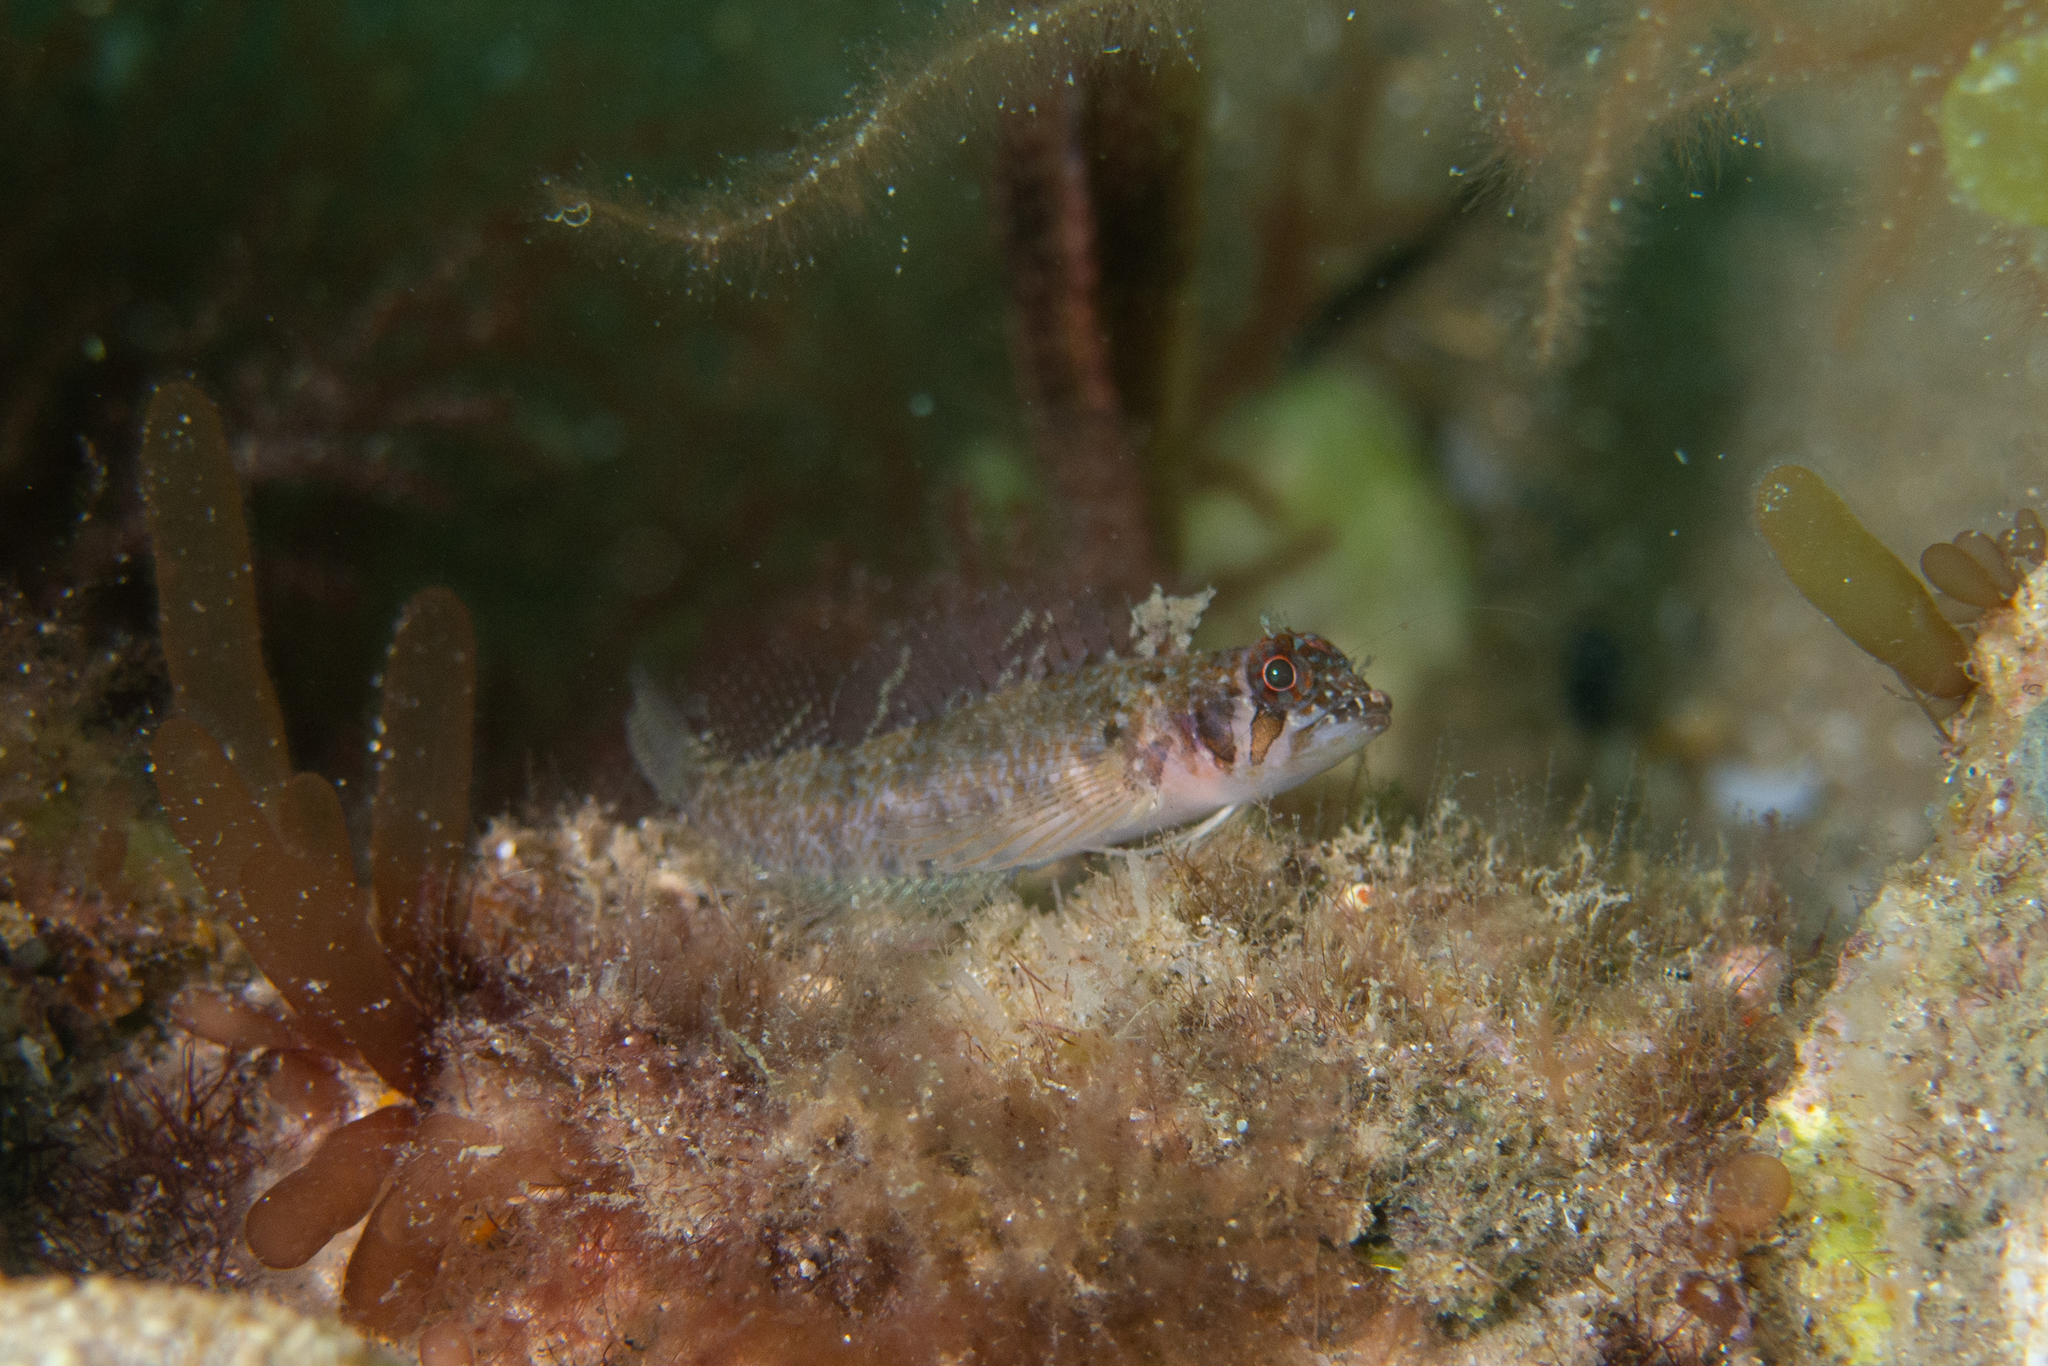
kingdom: Animalia
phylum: Chordata
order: Perciformes
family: Tripterygiidae
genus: Trinorfolkia
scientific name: Trinorfolkia clarkei
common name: Clarke's triplefin
